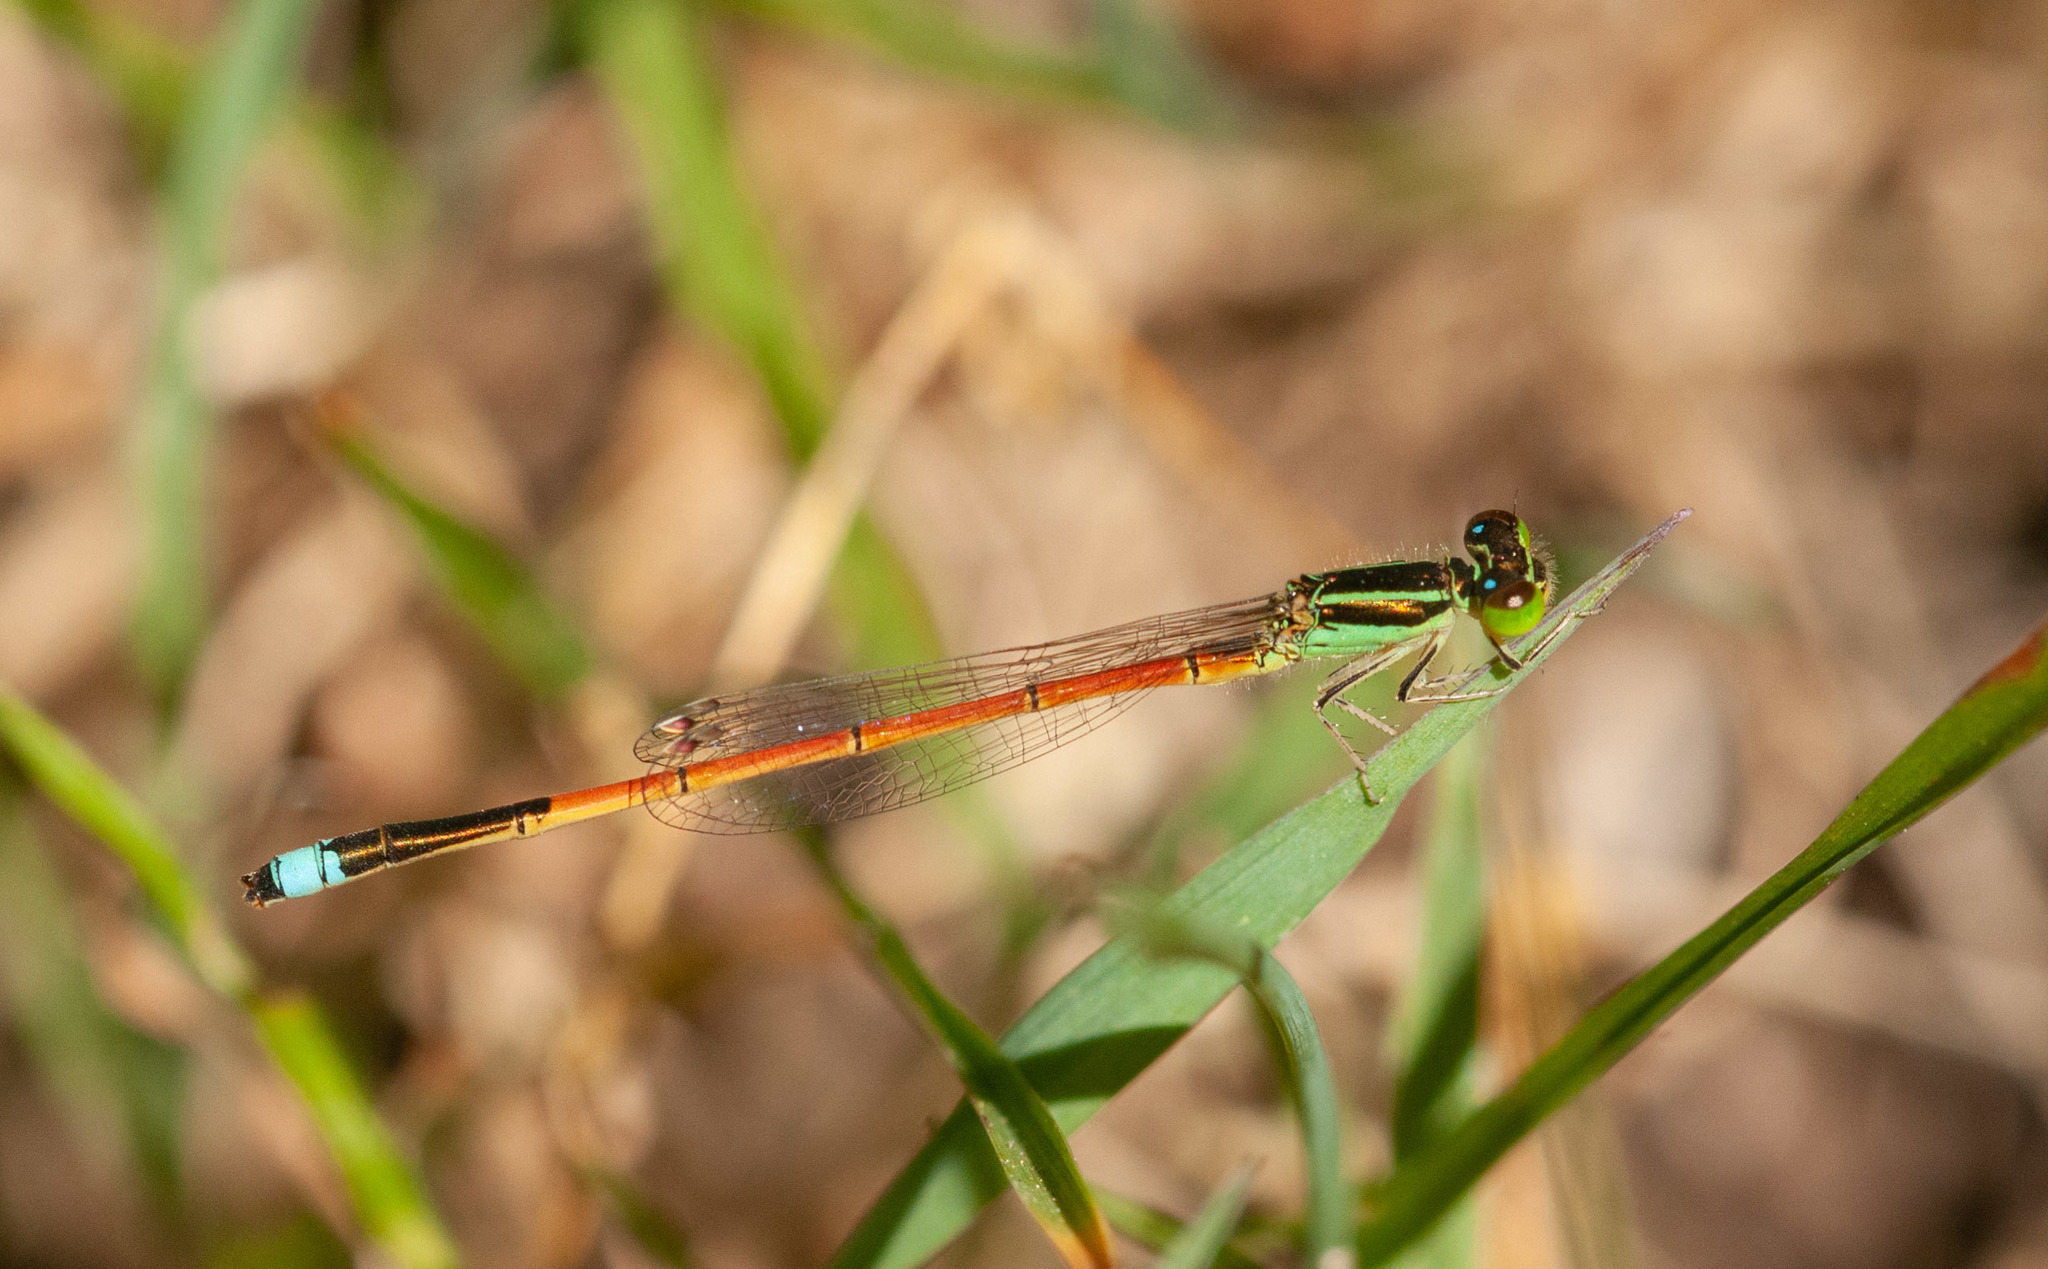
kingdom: Animalia
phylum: Arthropoda
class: Insecta
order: Odonata
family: Coenagrionidae
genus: Ischnura
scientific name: Ischnura aurora
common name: Gossamer damselfly
